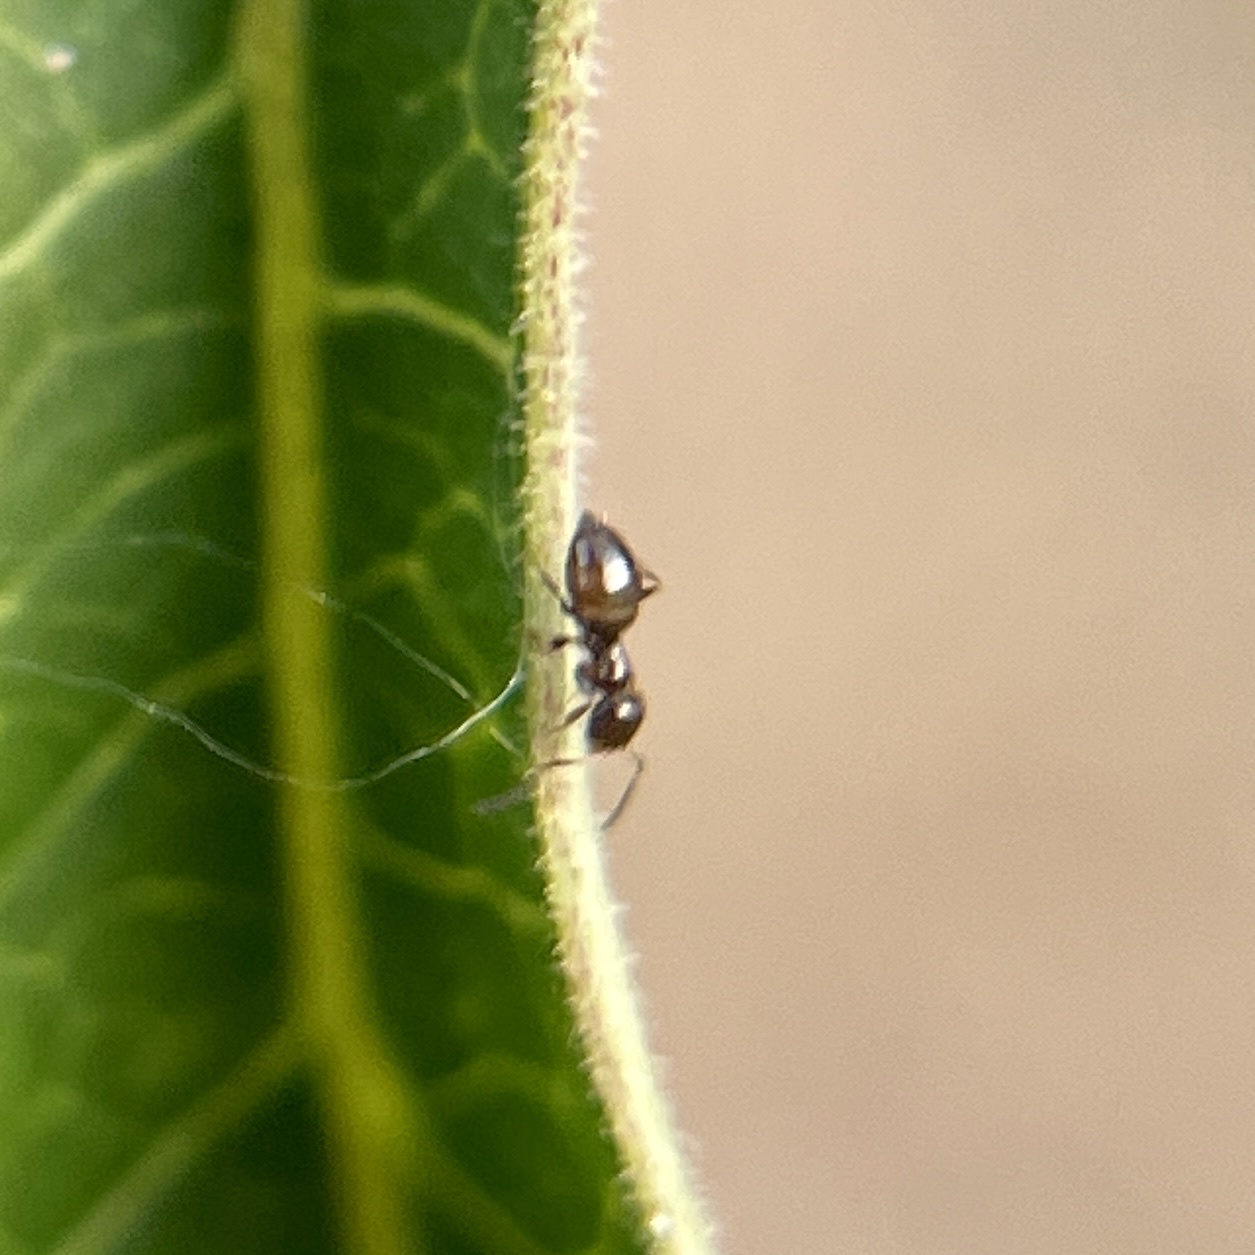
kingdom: Animalia
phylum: Arthropoda
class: Insecta
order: Hymenoptera
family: Formicidae
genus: Brachymyrmex
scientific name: Brachymyrmex patagonicus
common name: Dark rover ant
